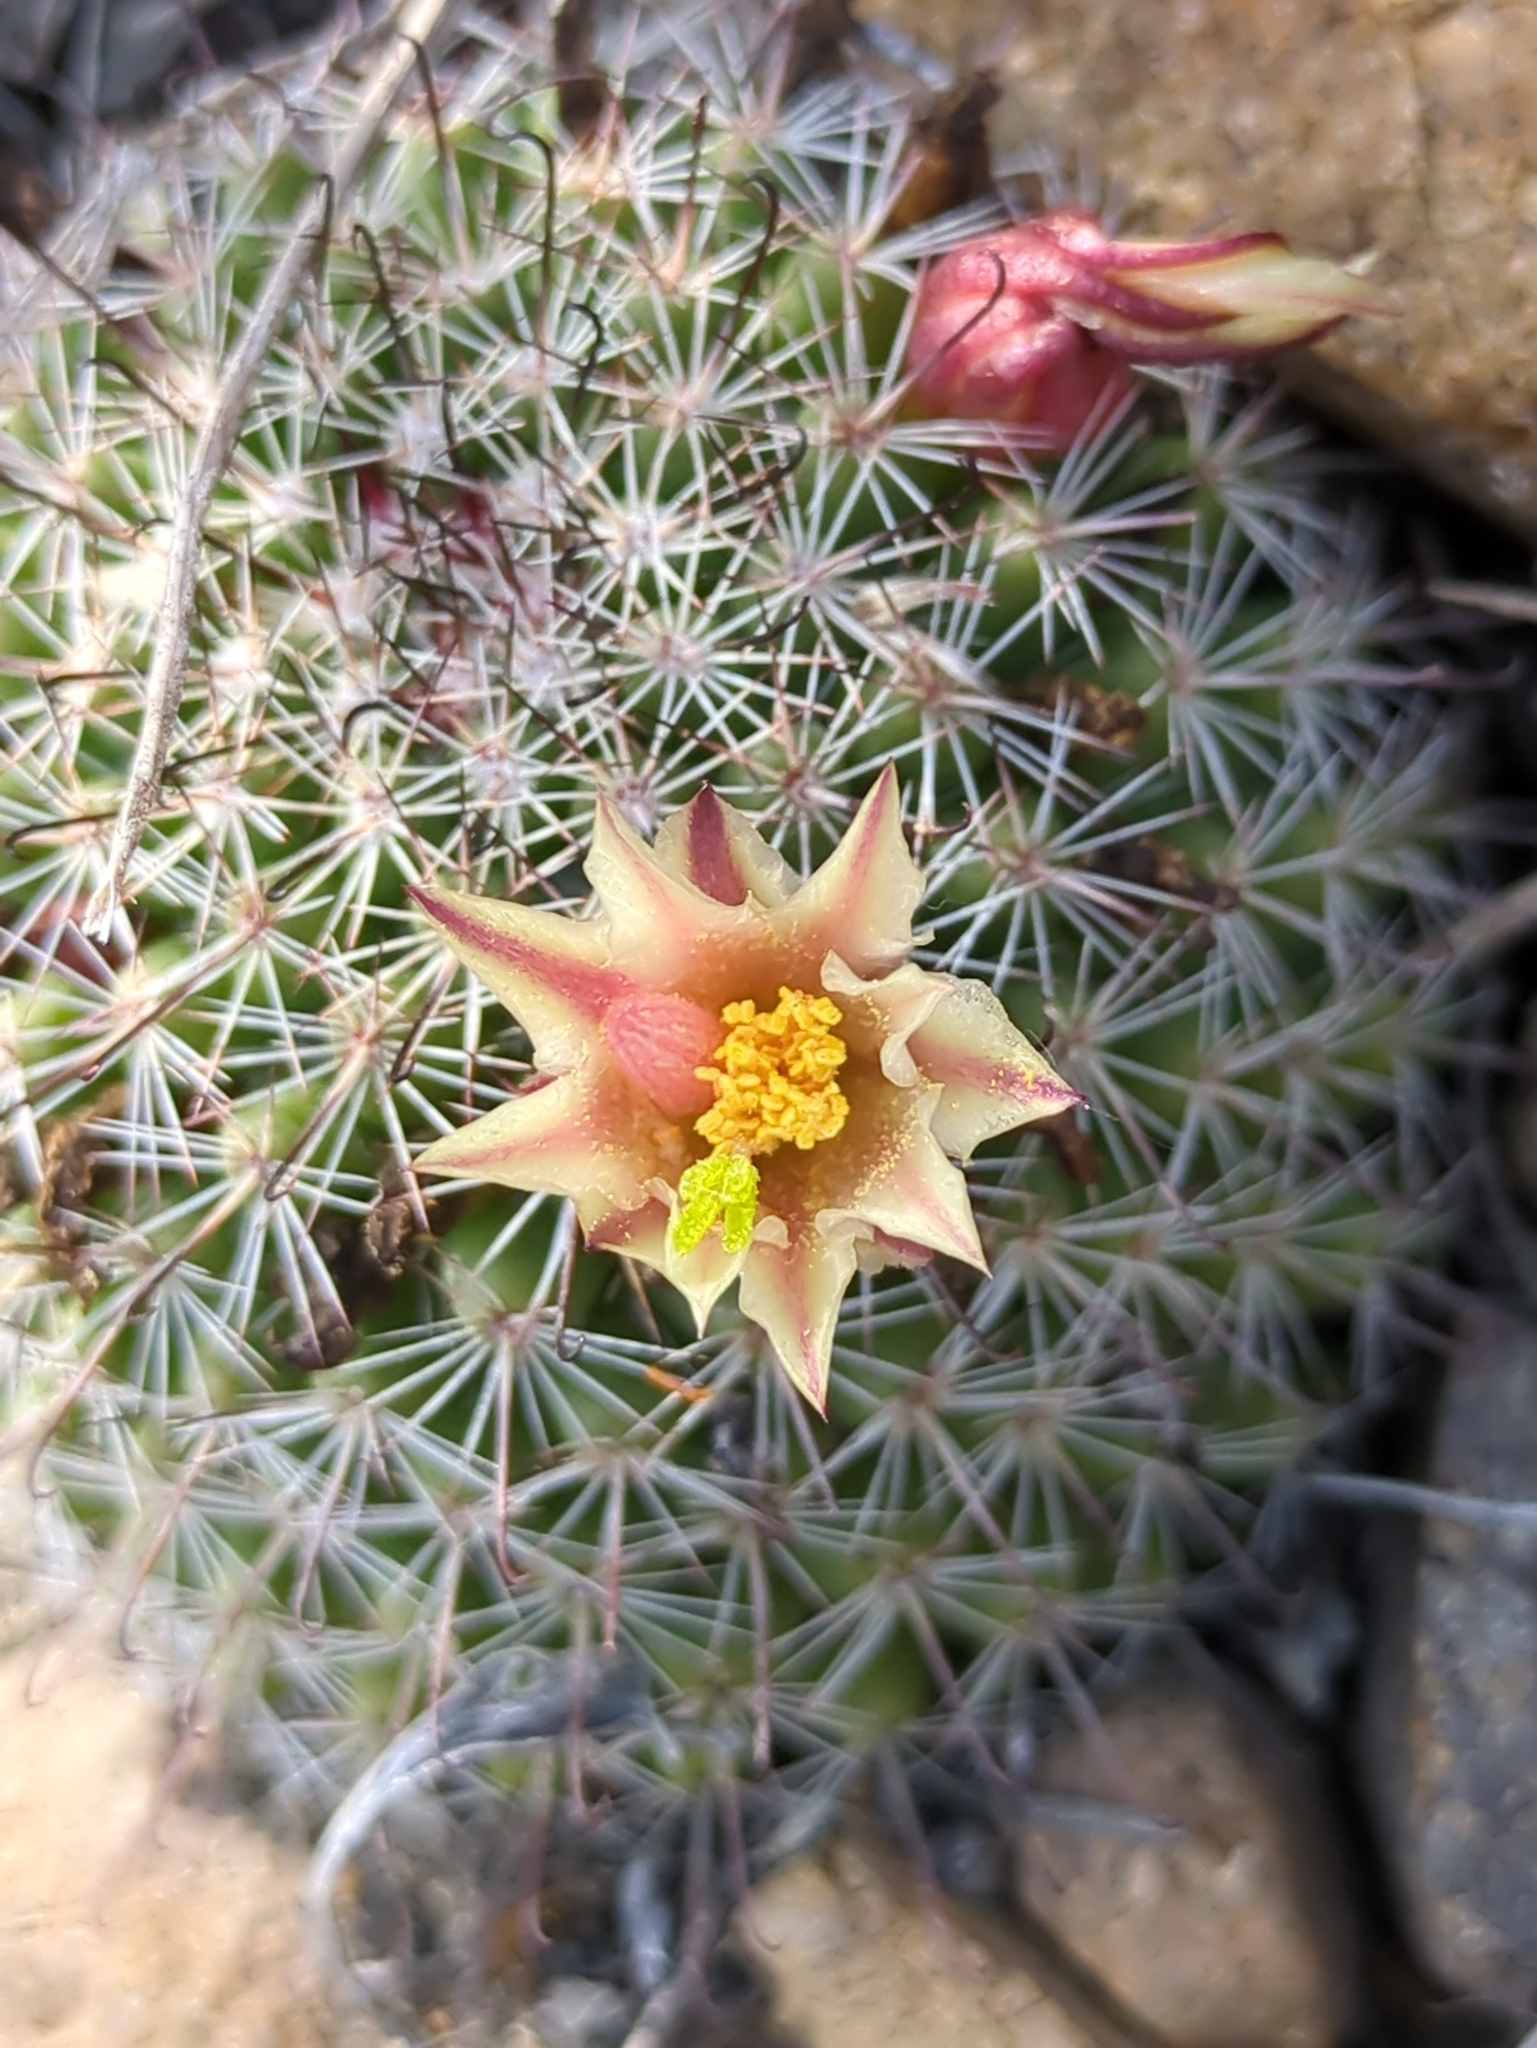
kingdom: Plantae
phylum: Tracheophyta
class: Magnoliopsida
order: Caryophyllales
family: Cactaceae
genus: Cochemiea
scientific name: Cochemiea dioica
